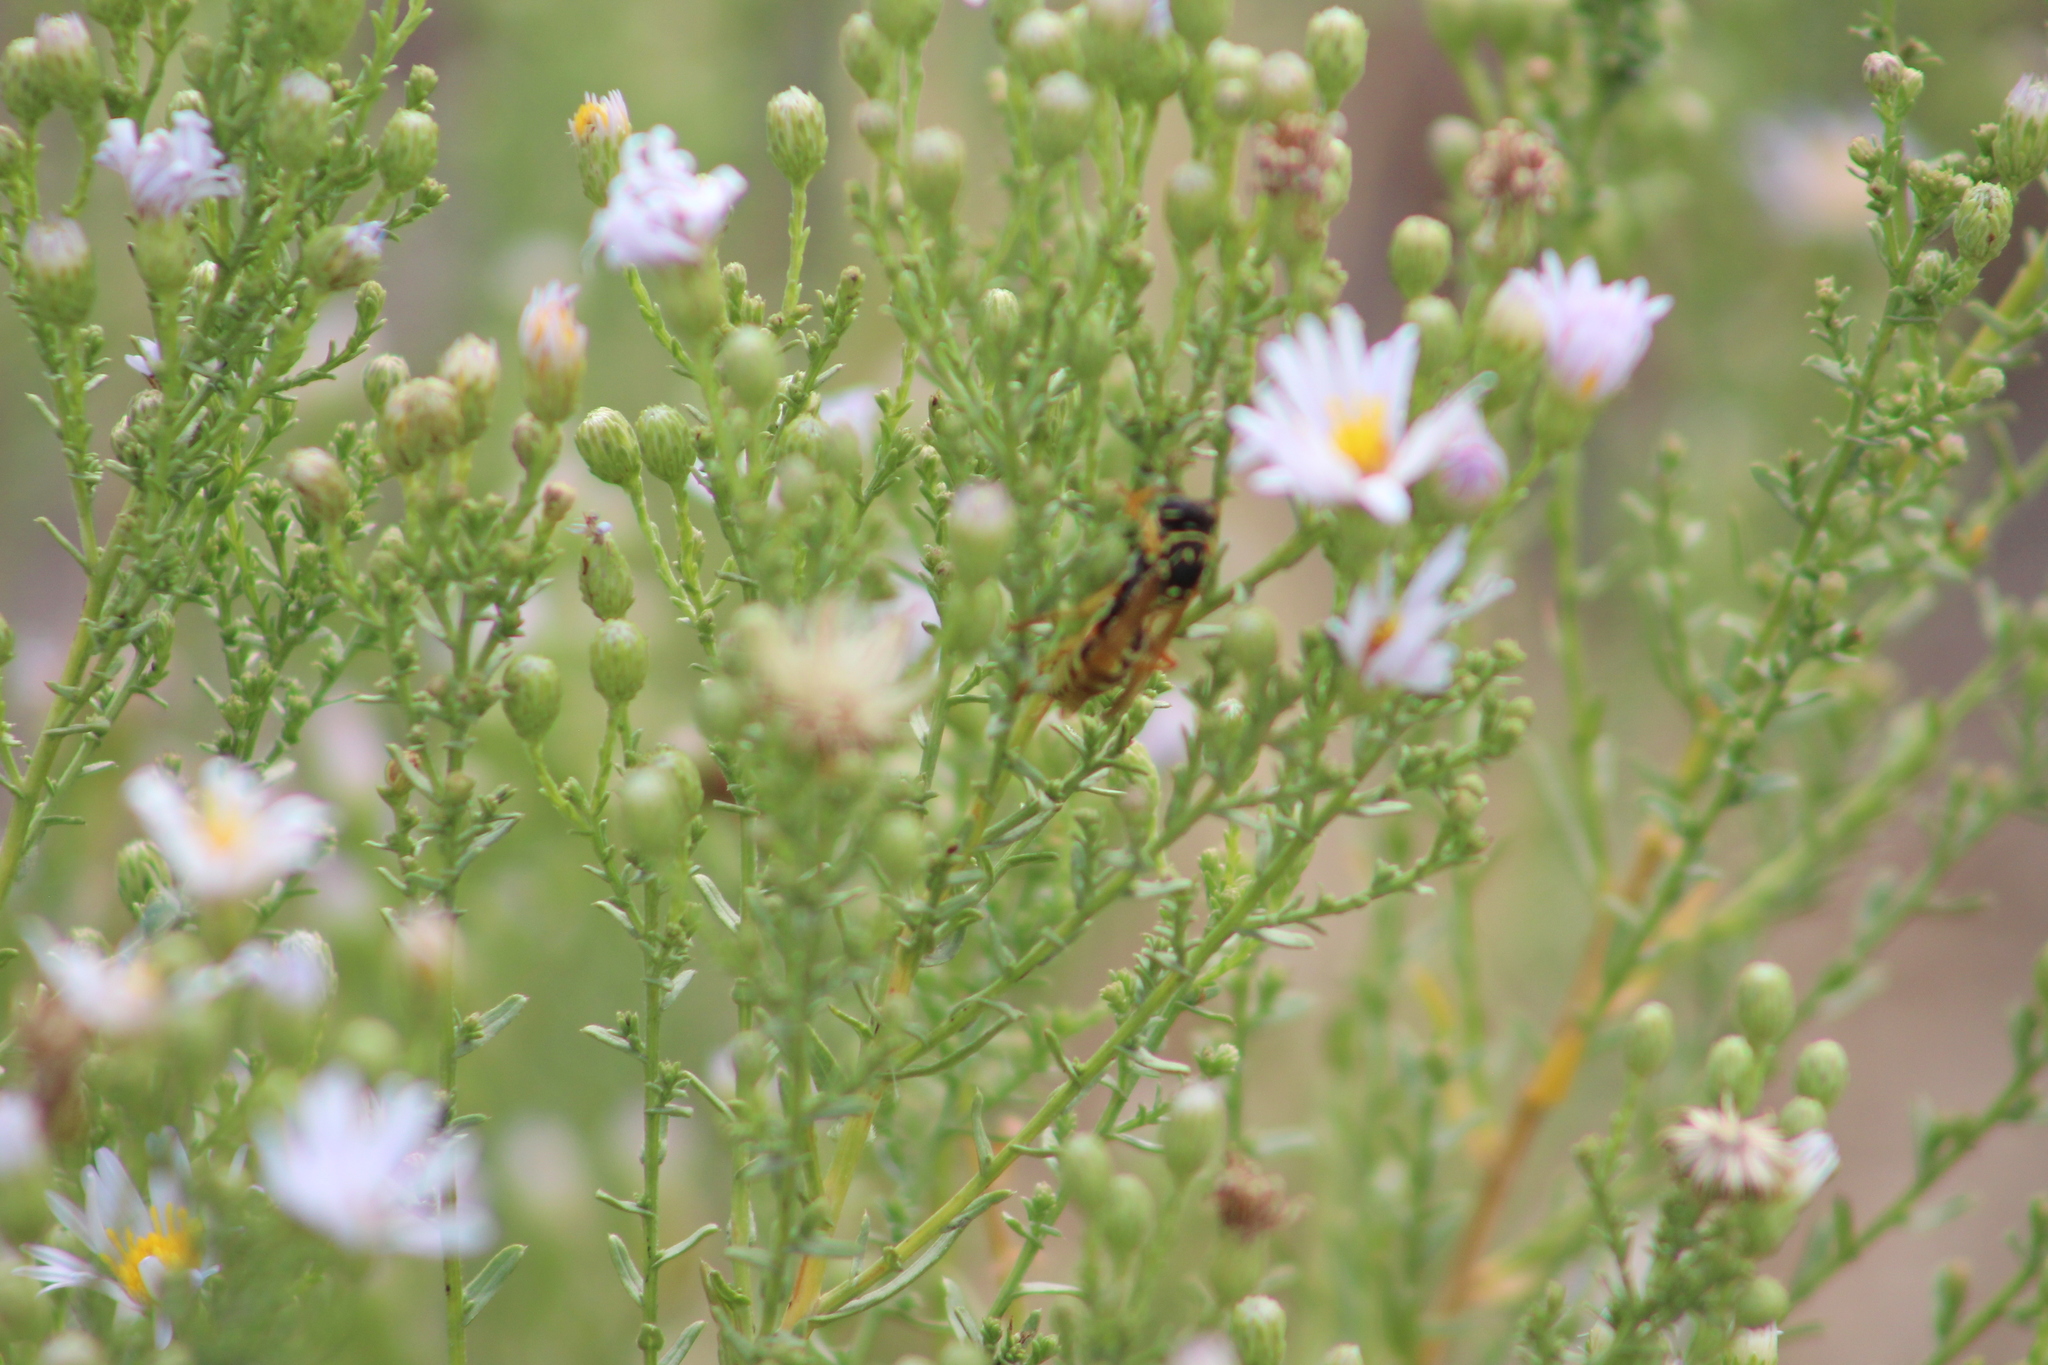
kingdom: Animalia
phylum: Arthropoda
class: Insecta
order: Hymenoptera
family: Eumenidae
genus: Polistes
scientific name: Polistes dominula
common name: Paper wasp
